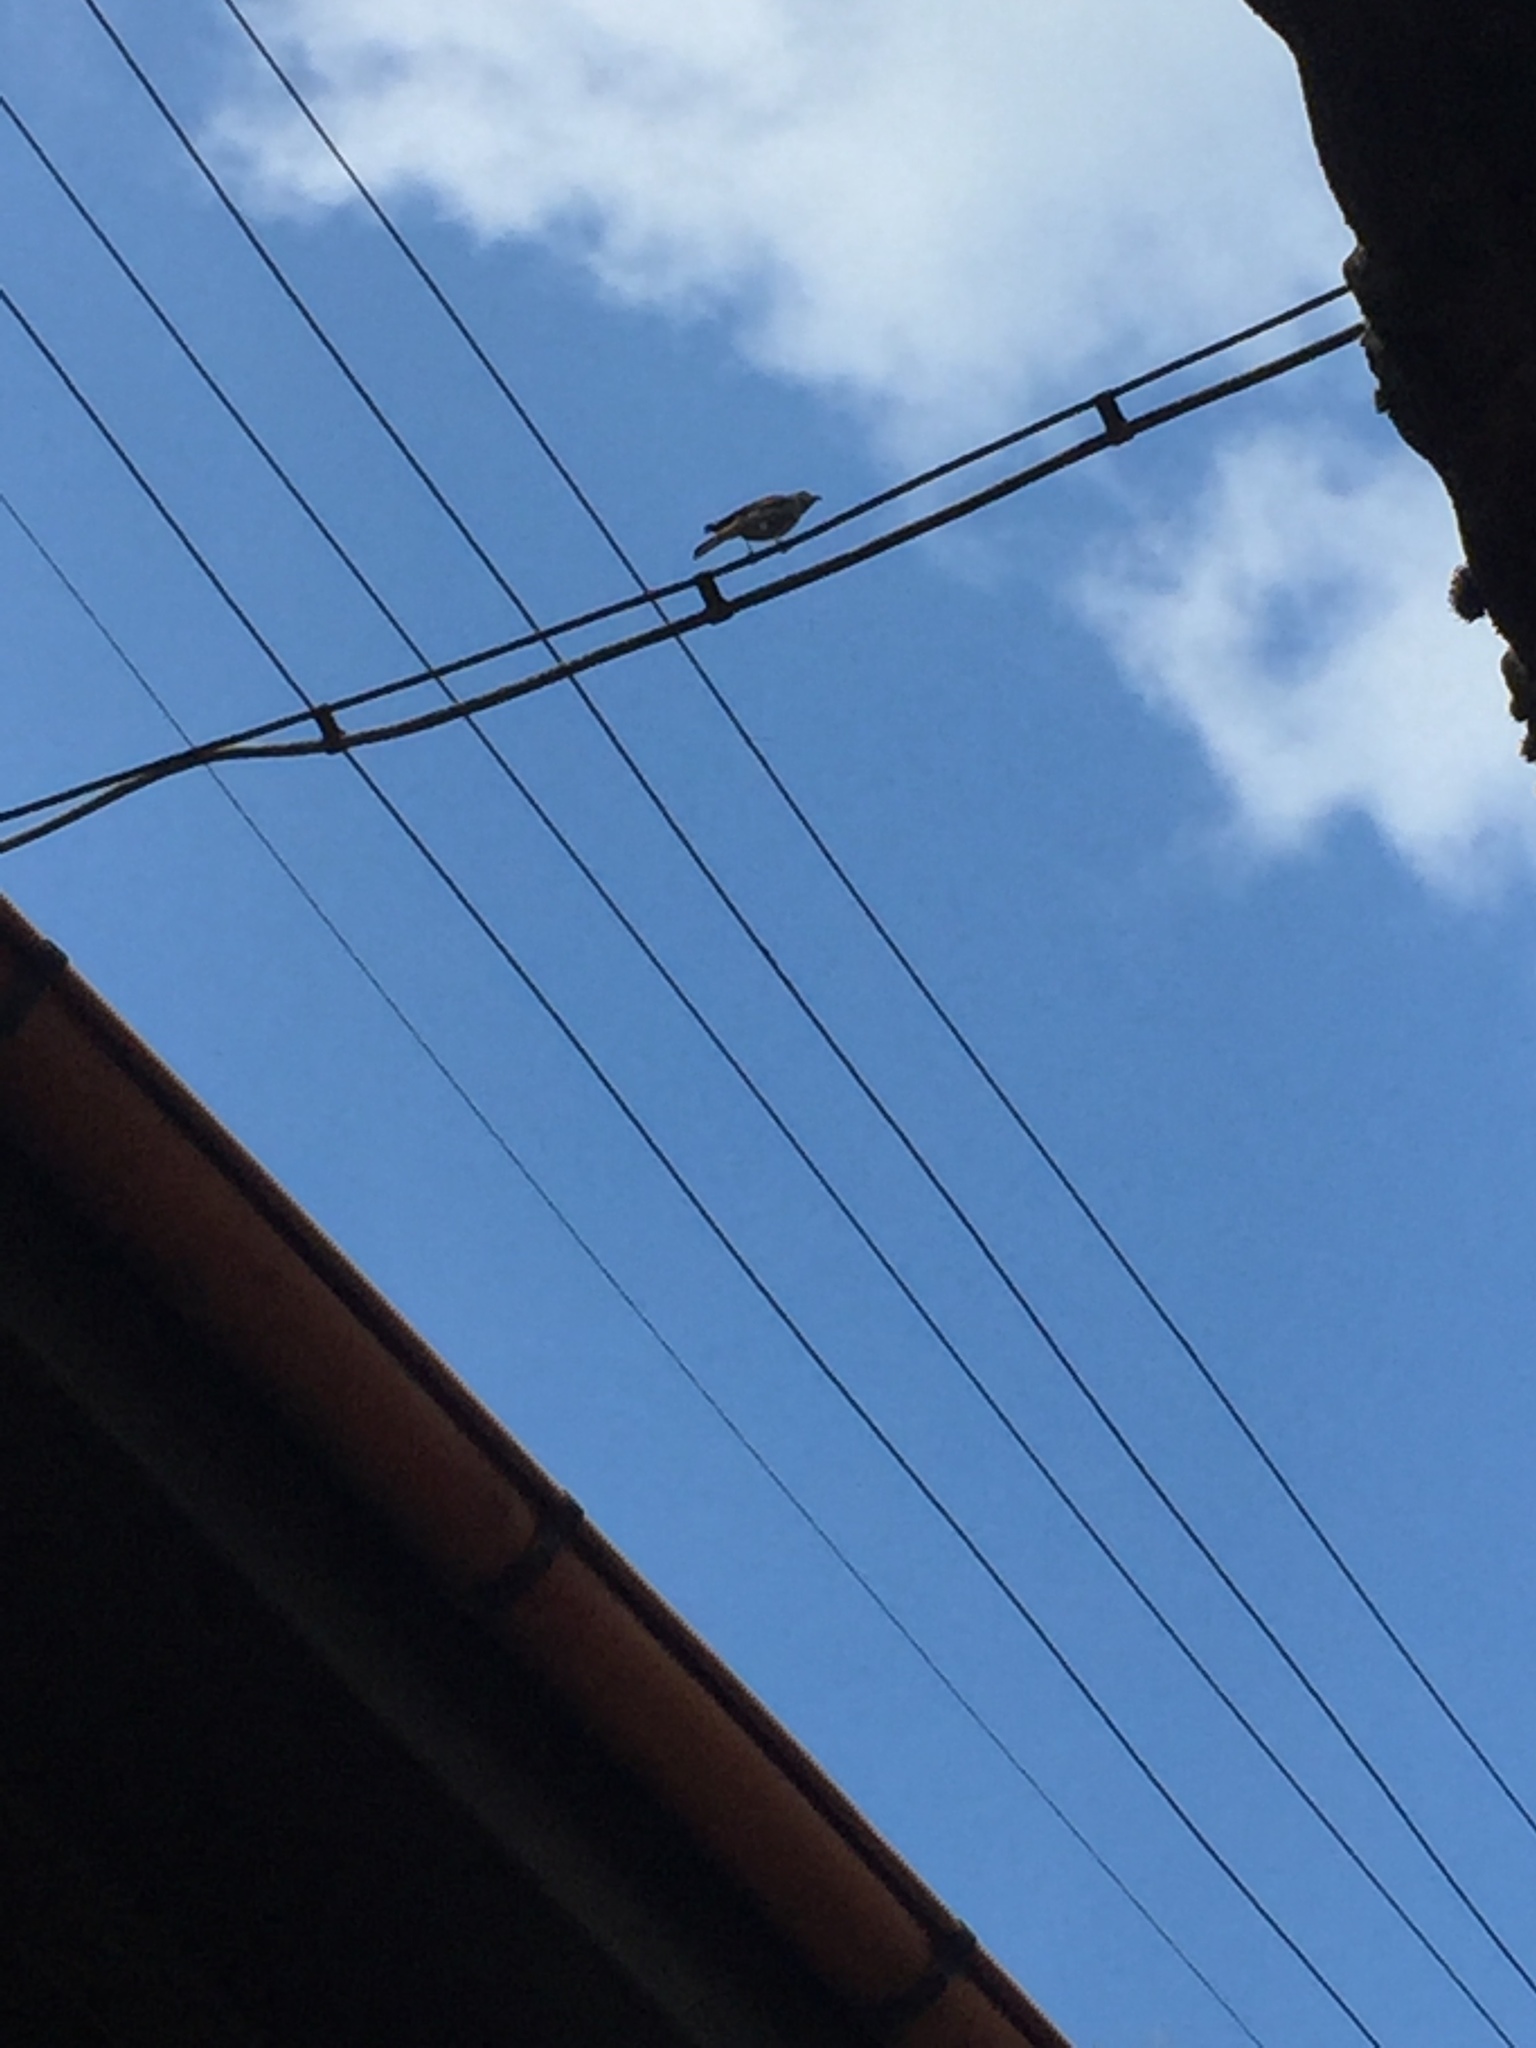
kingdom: Animalia
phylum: Chordata
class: Aves
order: Passeriformes
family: Muscicapidae
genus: Phoenicurus
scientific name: Phoenicurus ochruros
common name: Black redstart
